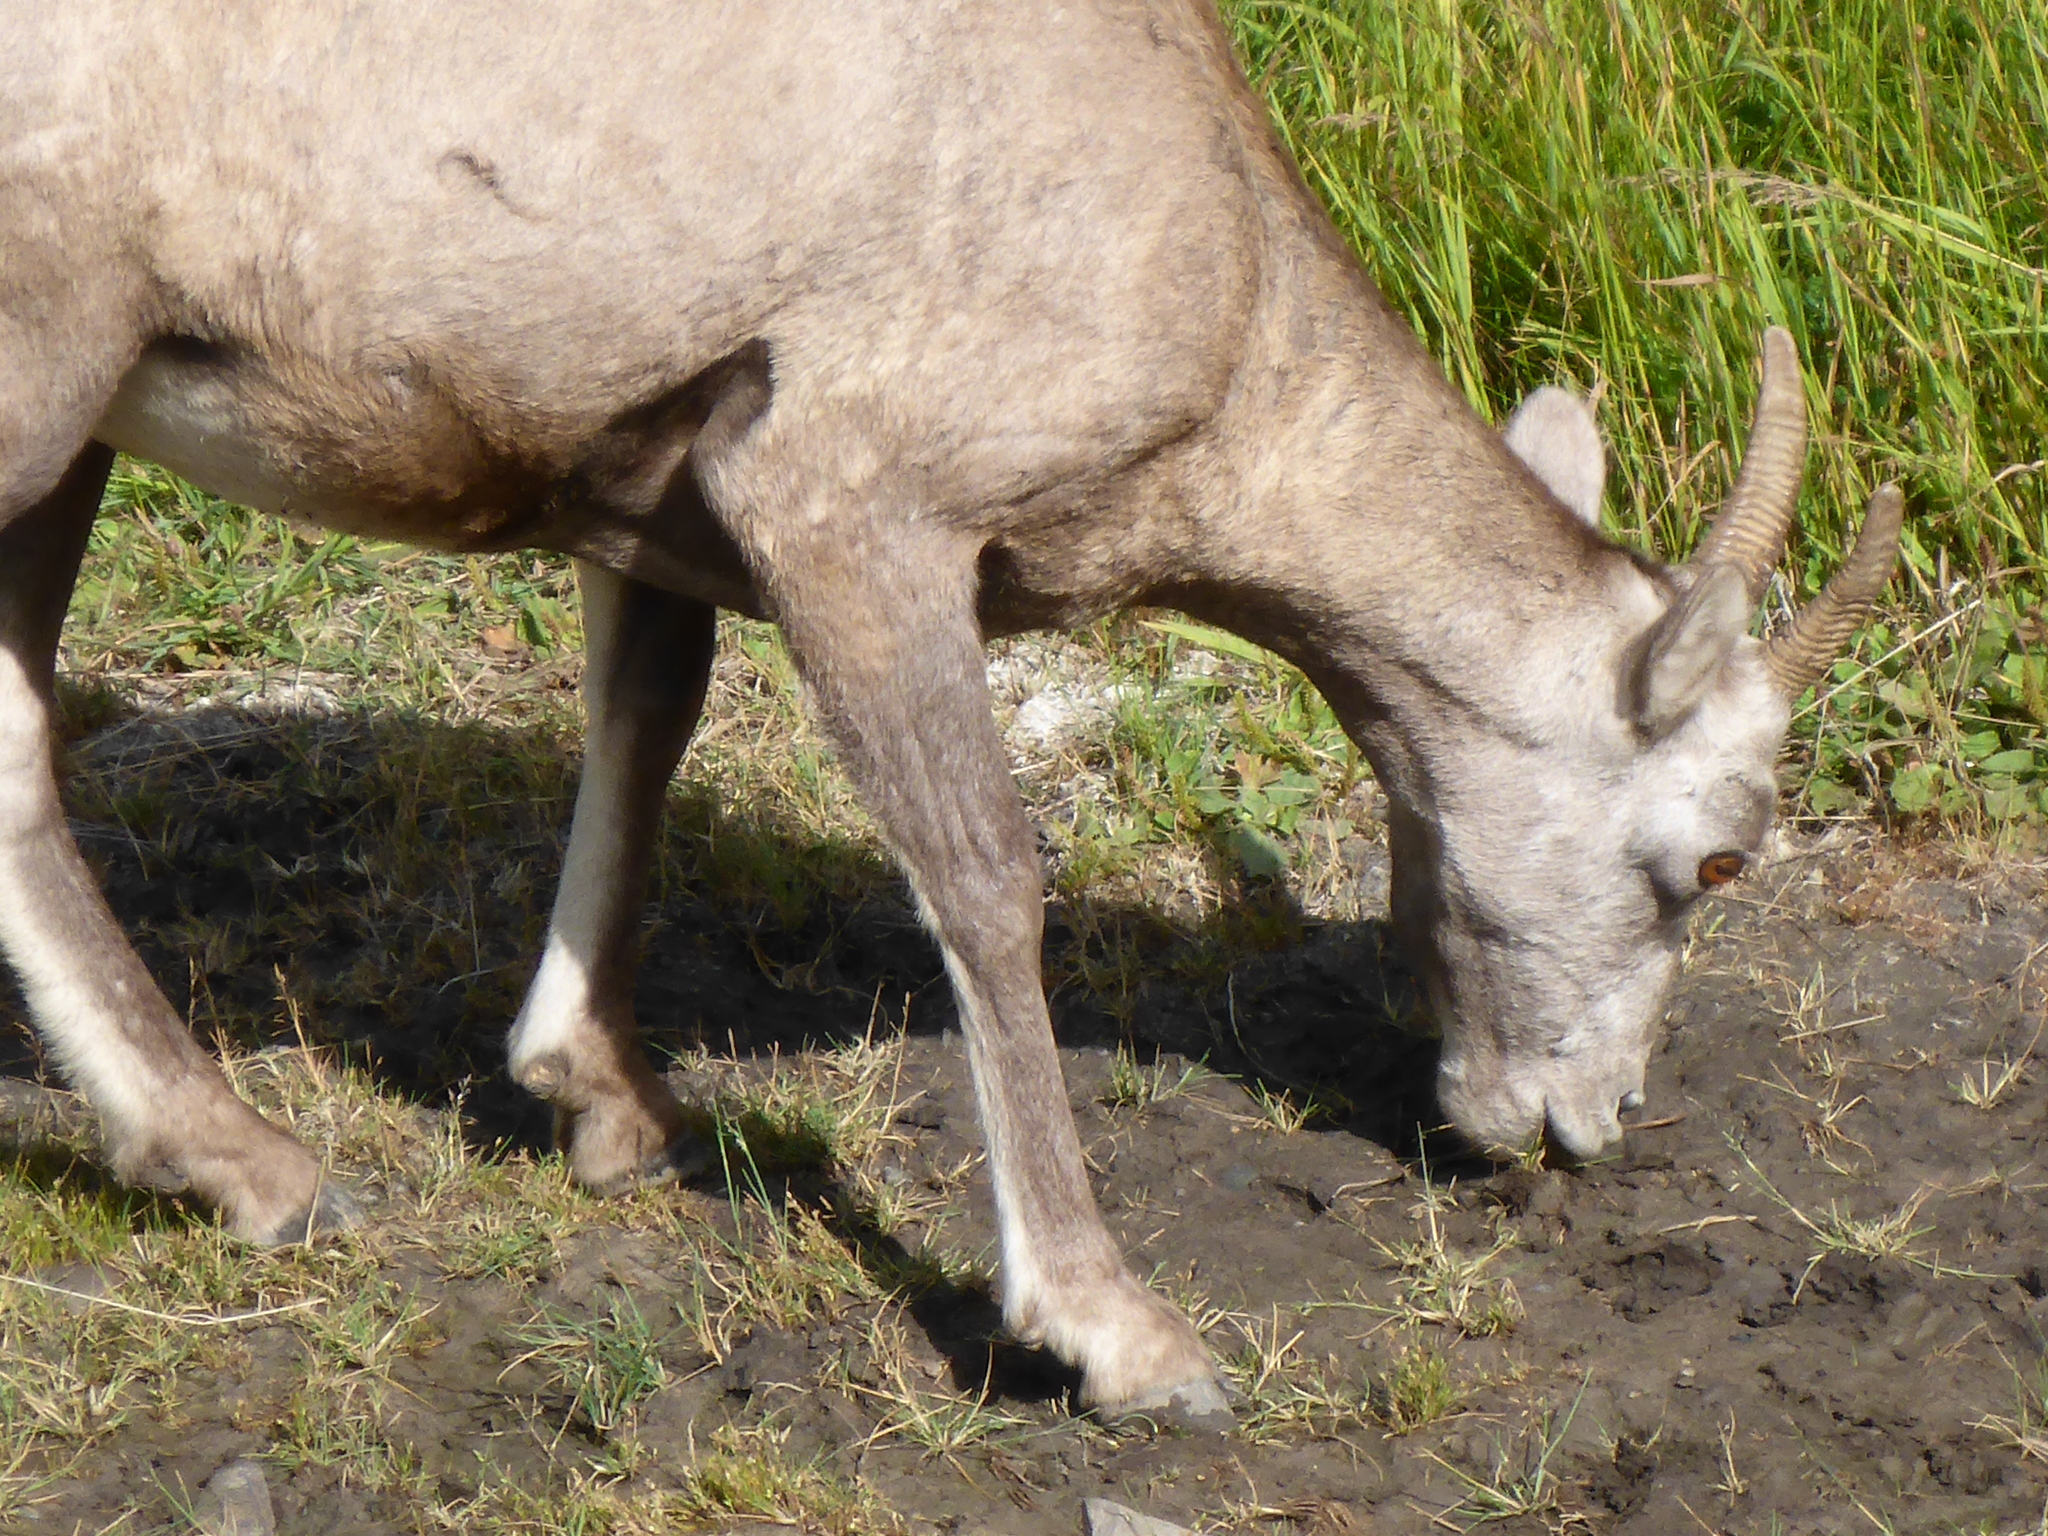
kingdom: Animalia
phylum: Chordata
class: Mammalia
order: Artiodactyla
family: Bovidae
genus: Ovis
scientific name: Ovis canadensis
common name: Bighorn sheep
